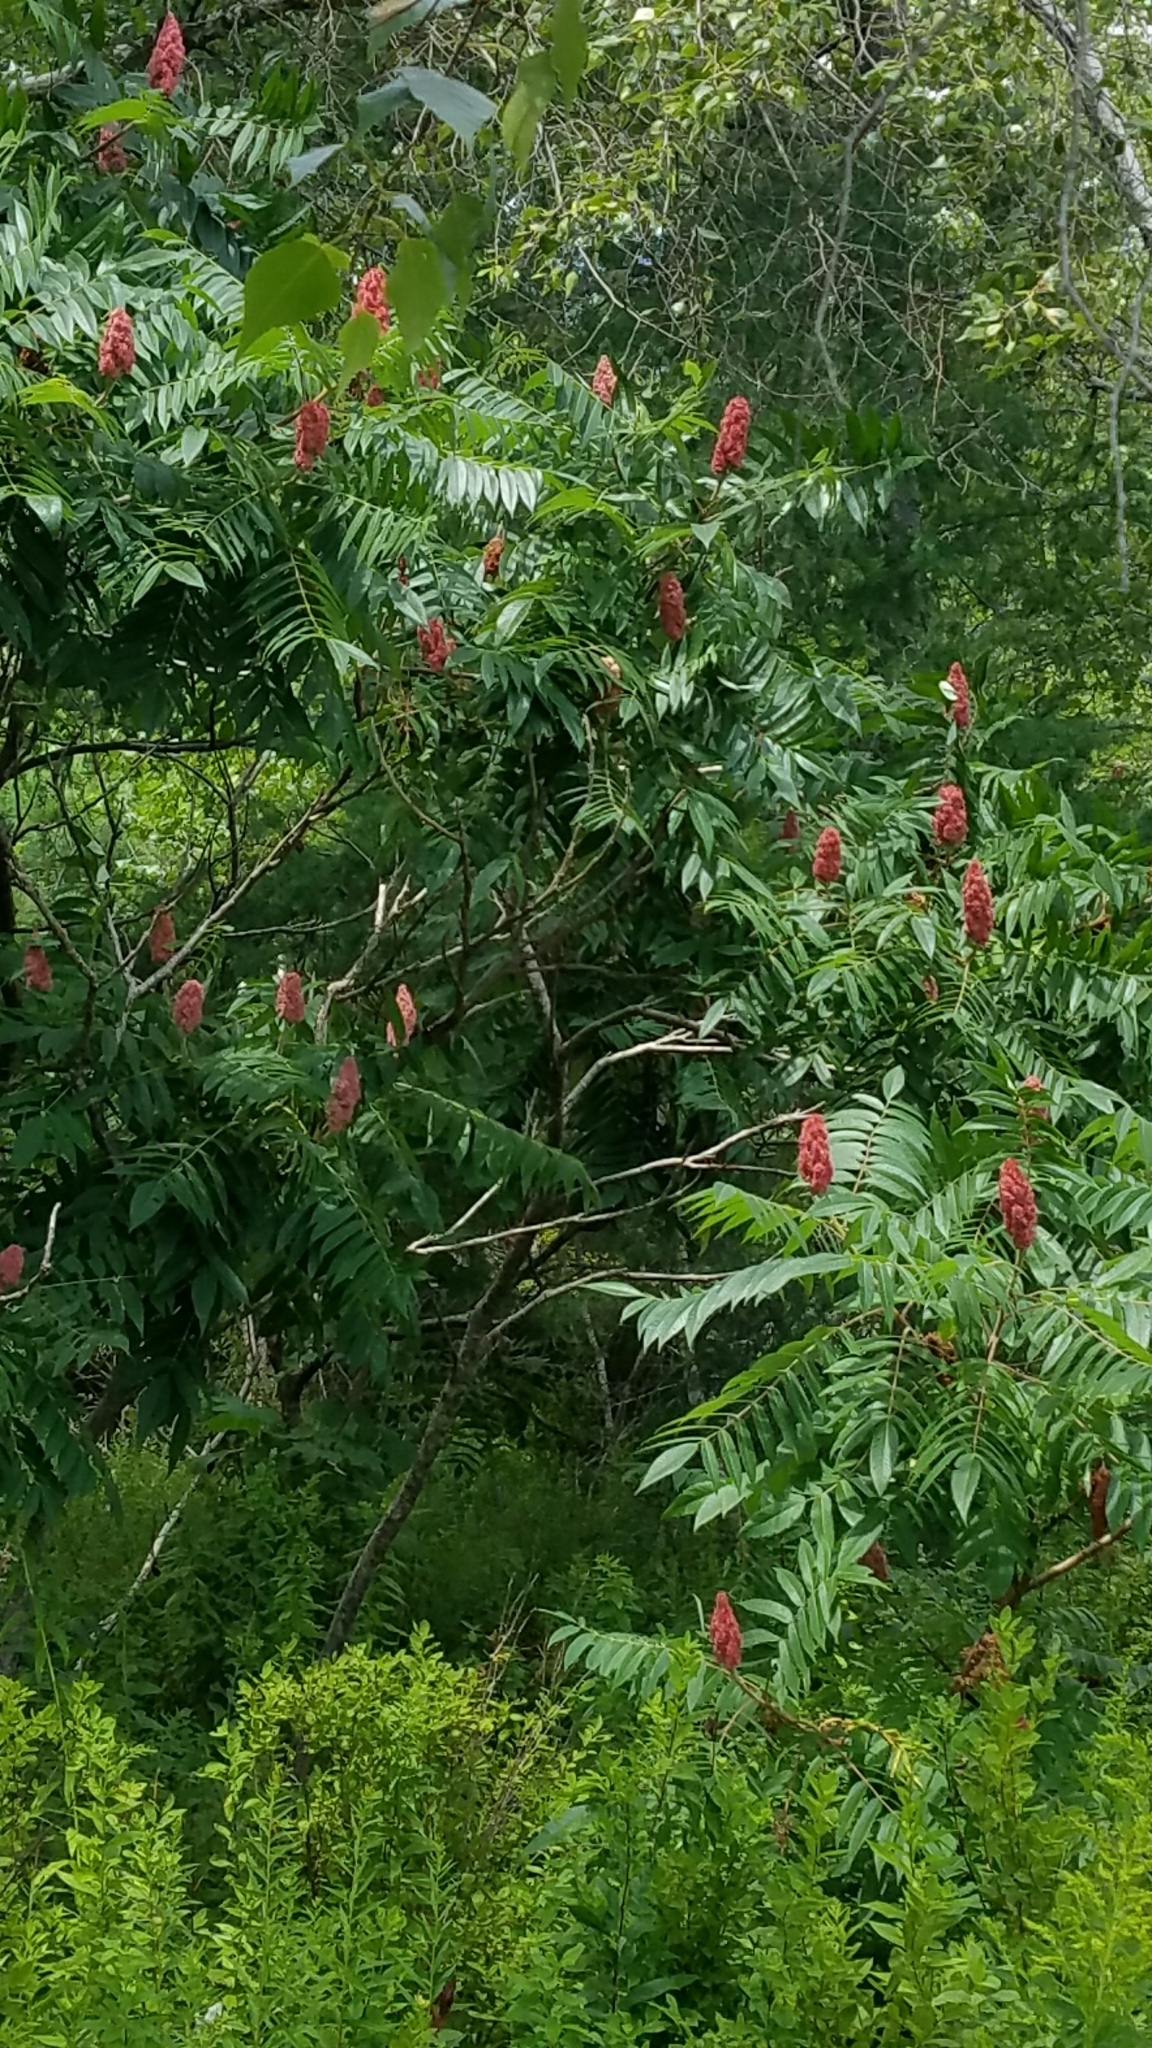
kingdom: Plantae
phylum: Tracheophyta
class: Magnoliopsida
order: Sapindales
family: Anacardiaceae
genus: Rhus
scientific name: Rhus typhina
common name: Staghorn sumac
